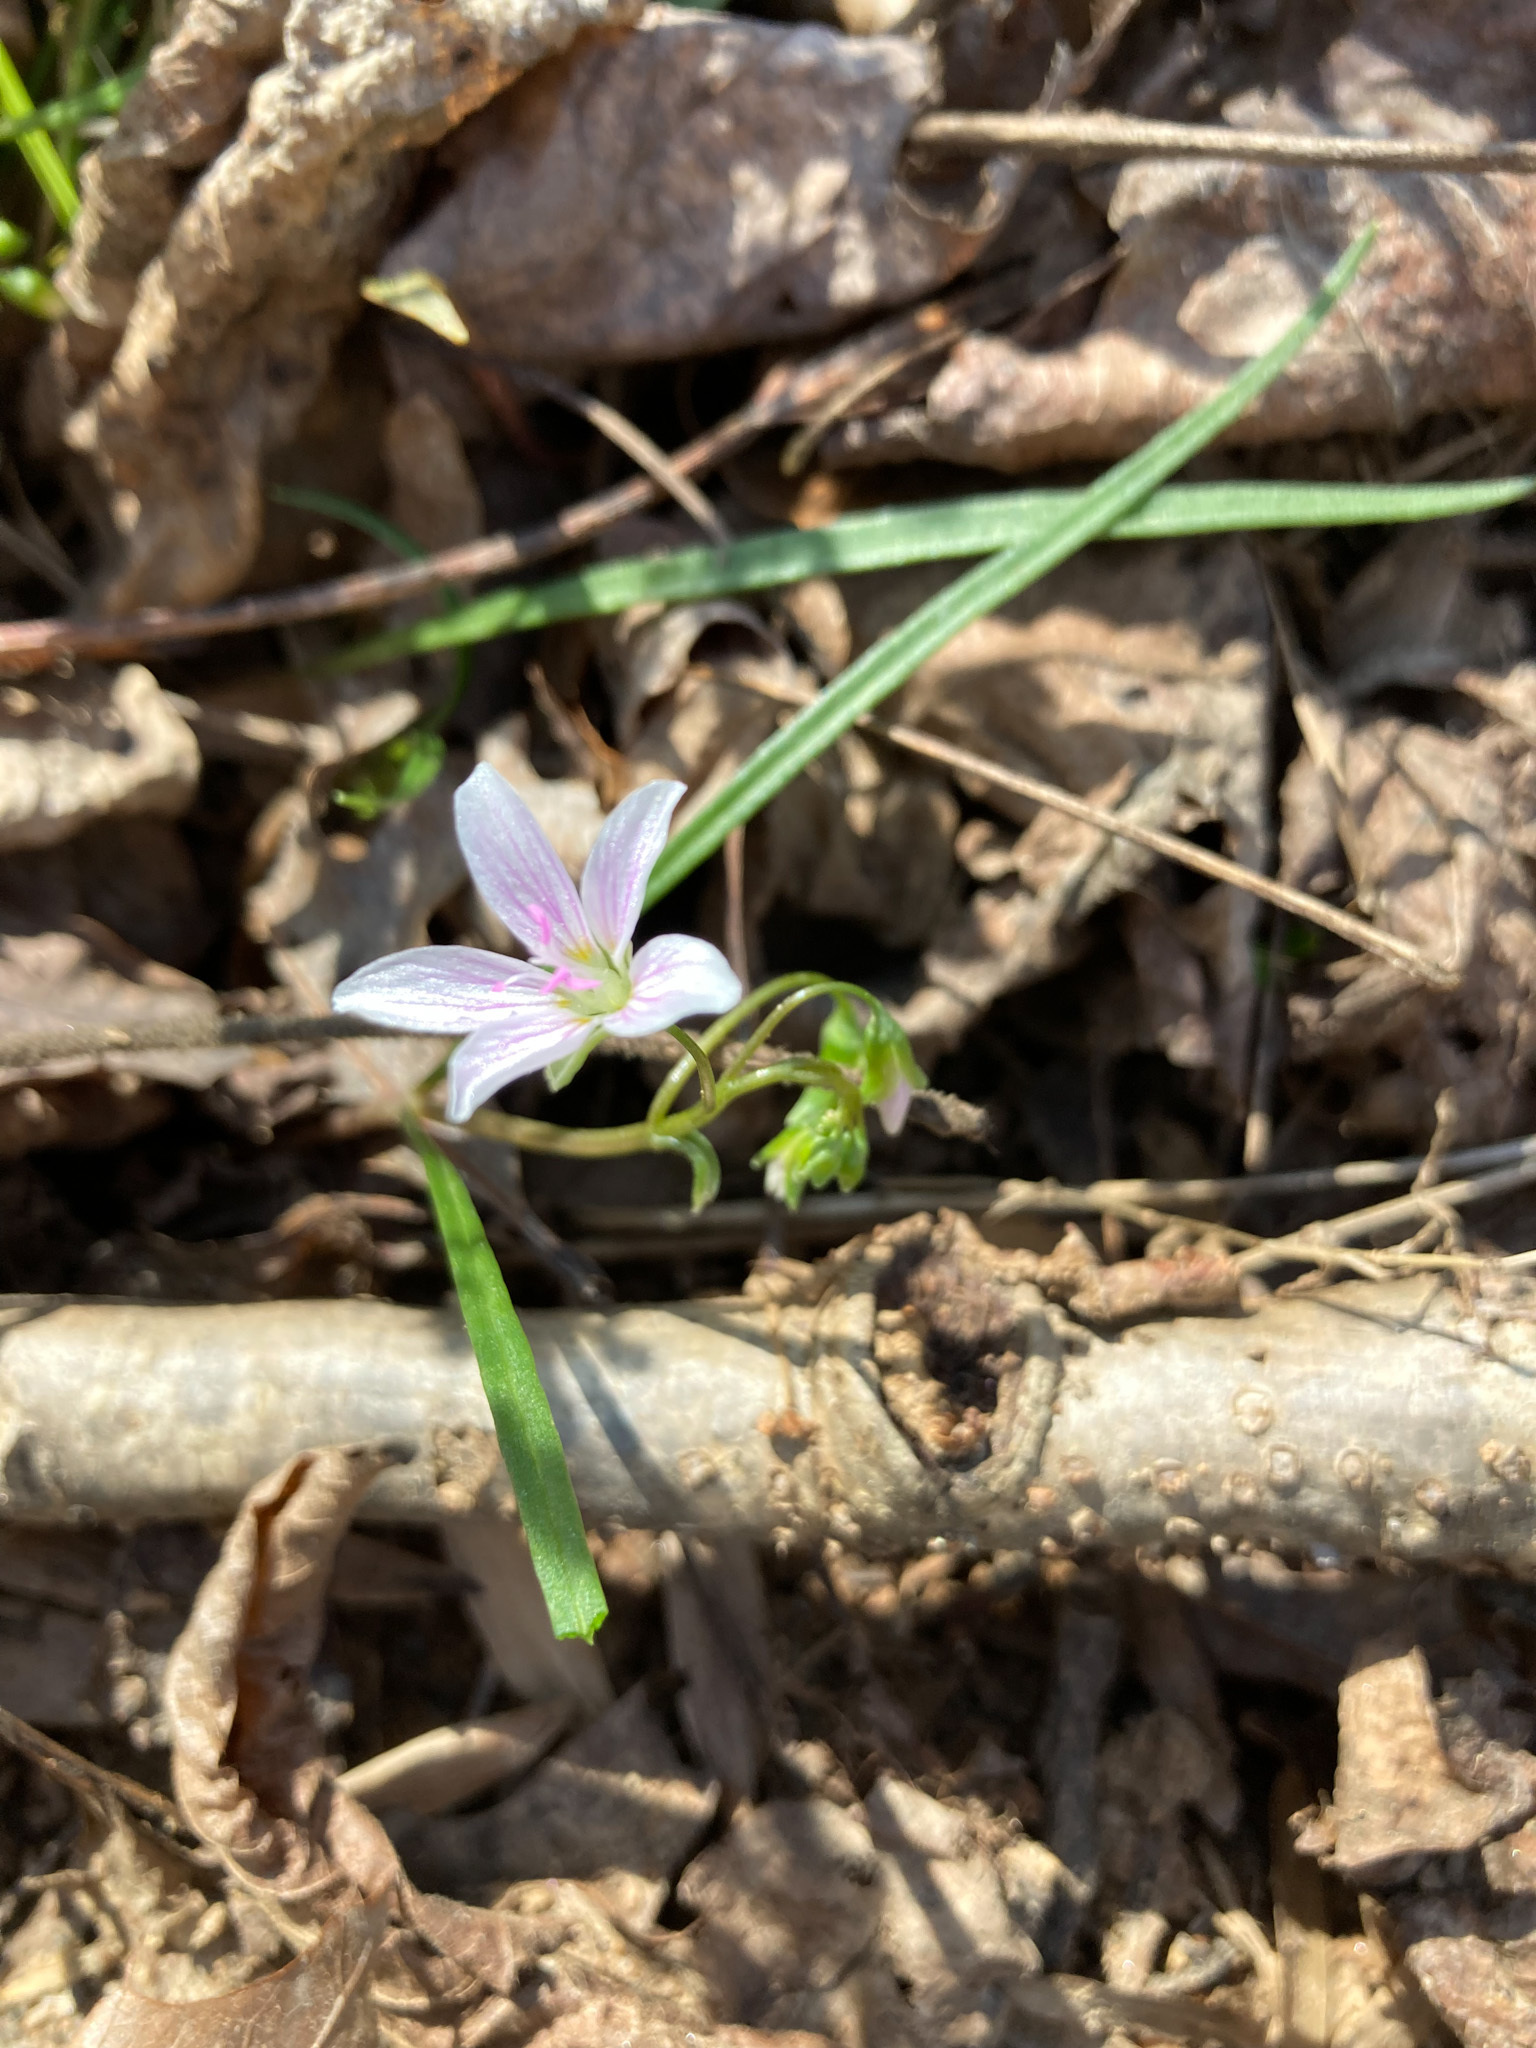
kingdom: Plantae
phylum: Tracheophyta
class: Magnoliopsida
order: Caryophyllales
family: Montiaceae
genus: Claytonia
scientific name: Claytonia virginica
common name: Virginia springbeauty
